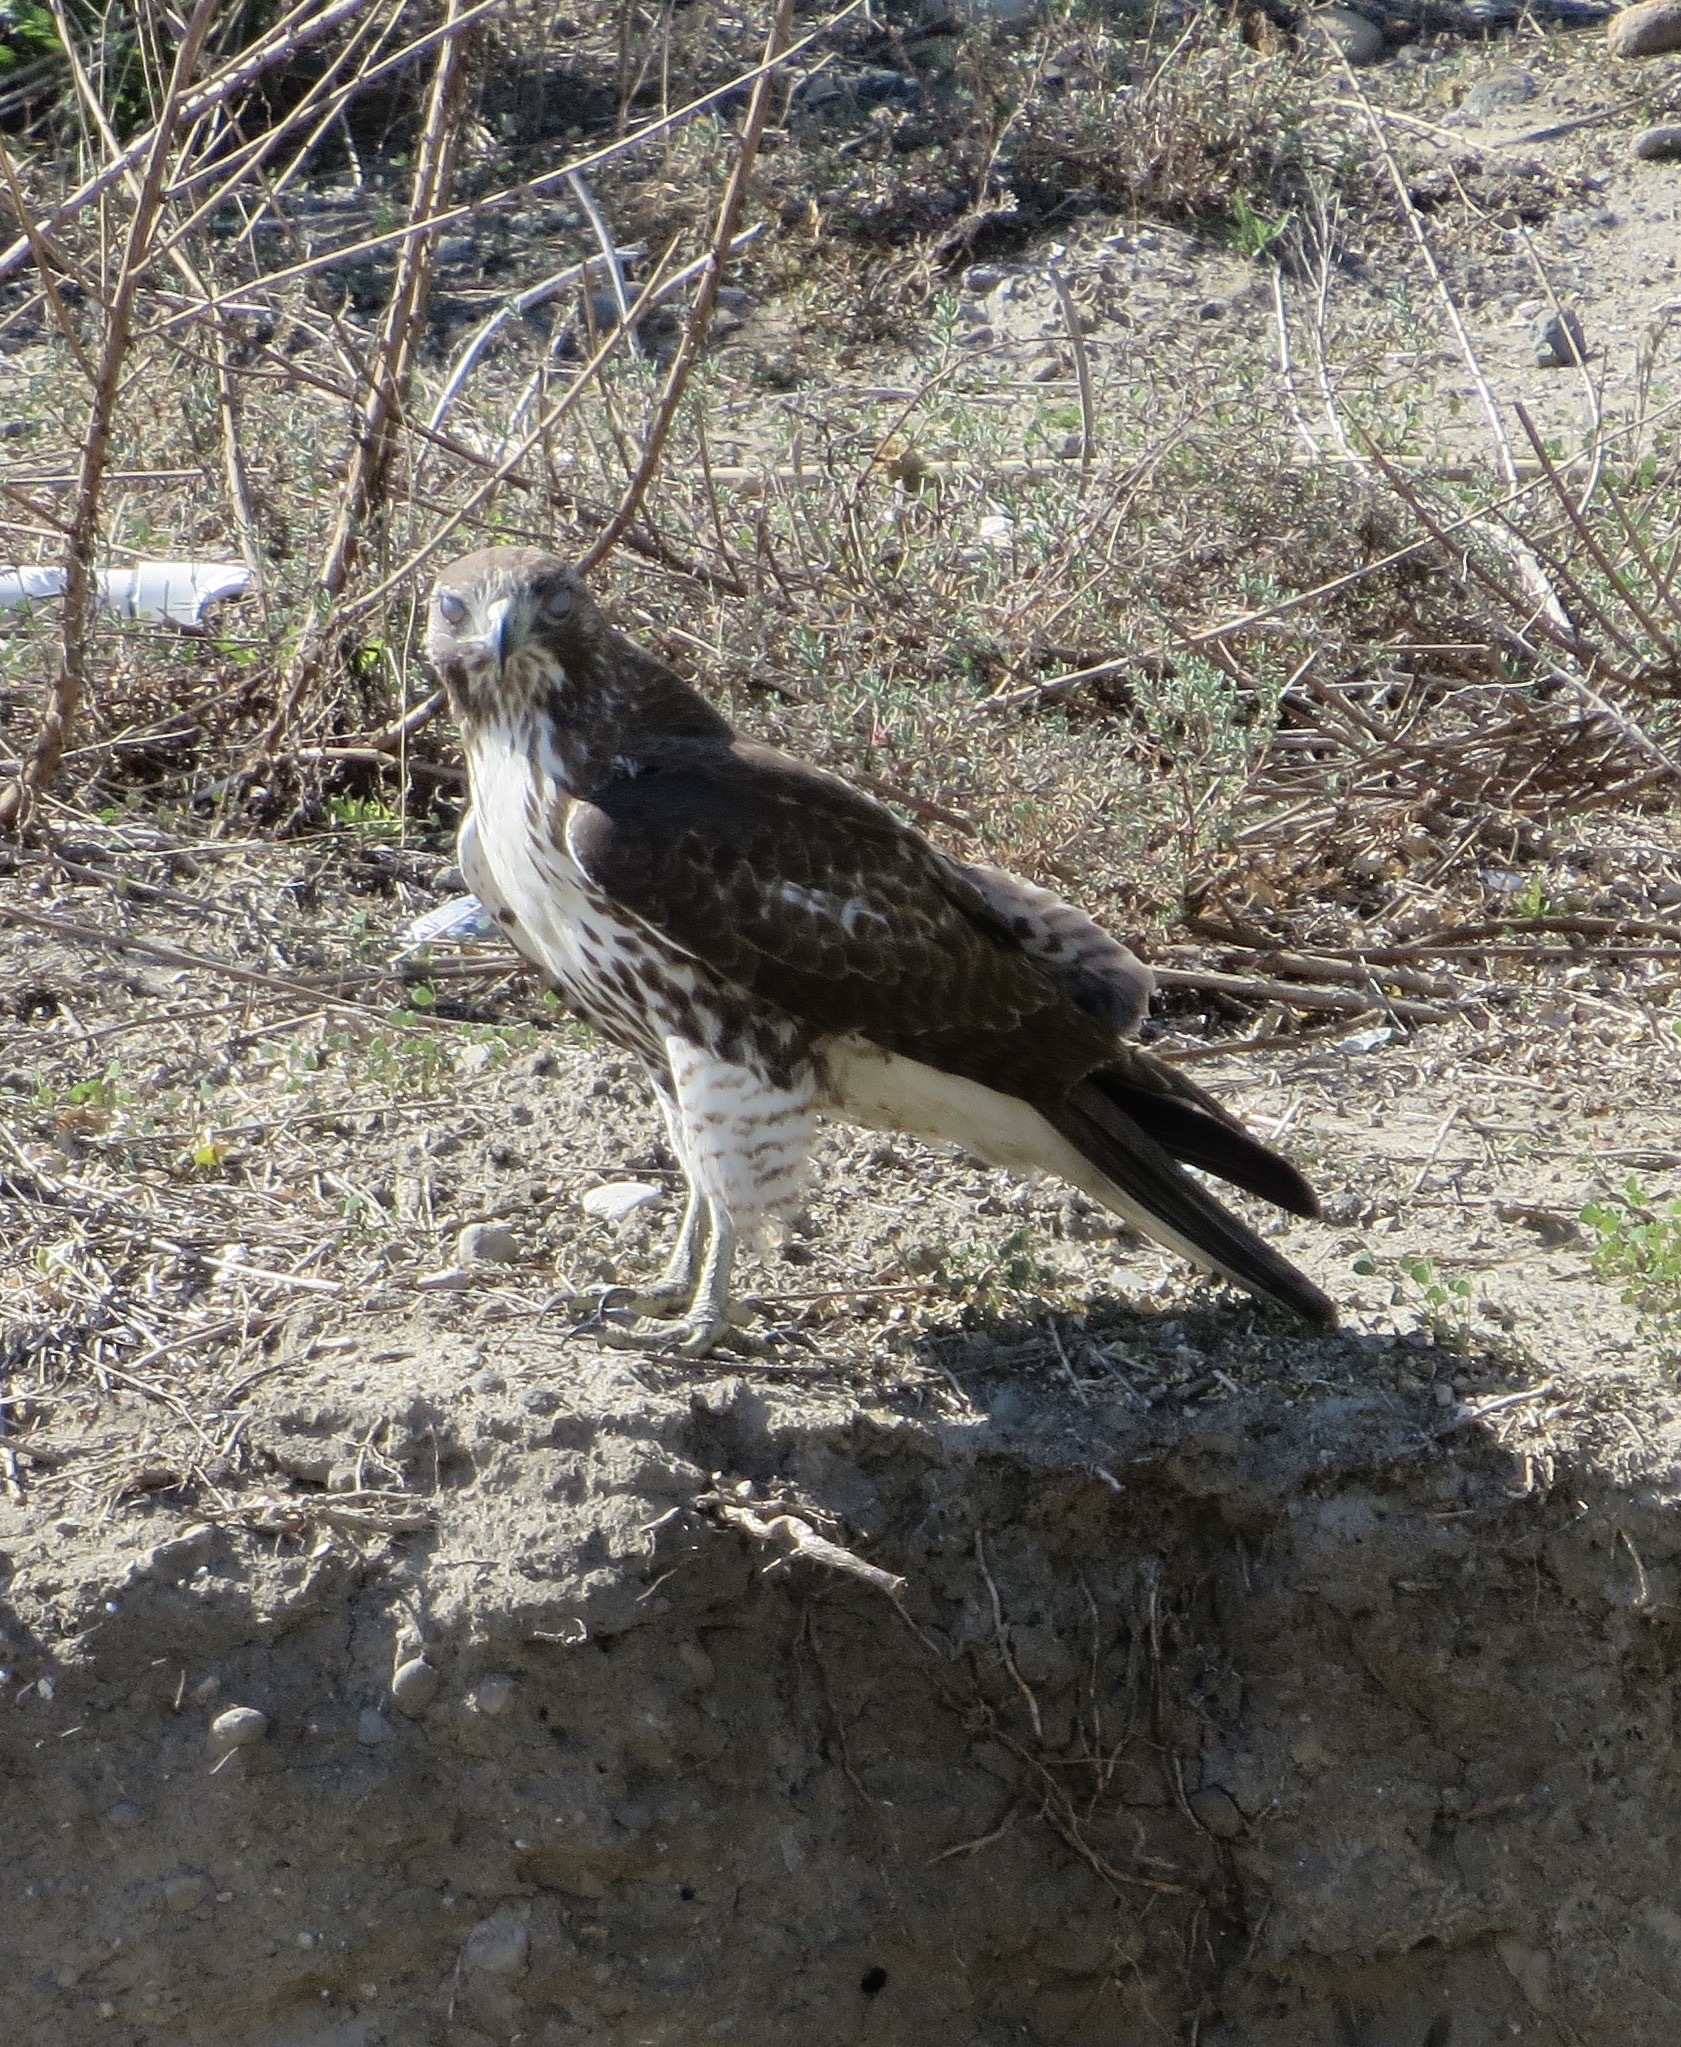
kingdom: Animalia
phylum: Chordata
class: Aves
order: Accipitriformes
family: Accipitridae
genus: Buteo
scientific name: Buteo jamaicensis
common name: Red-tailed hawk
